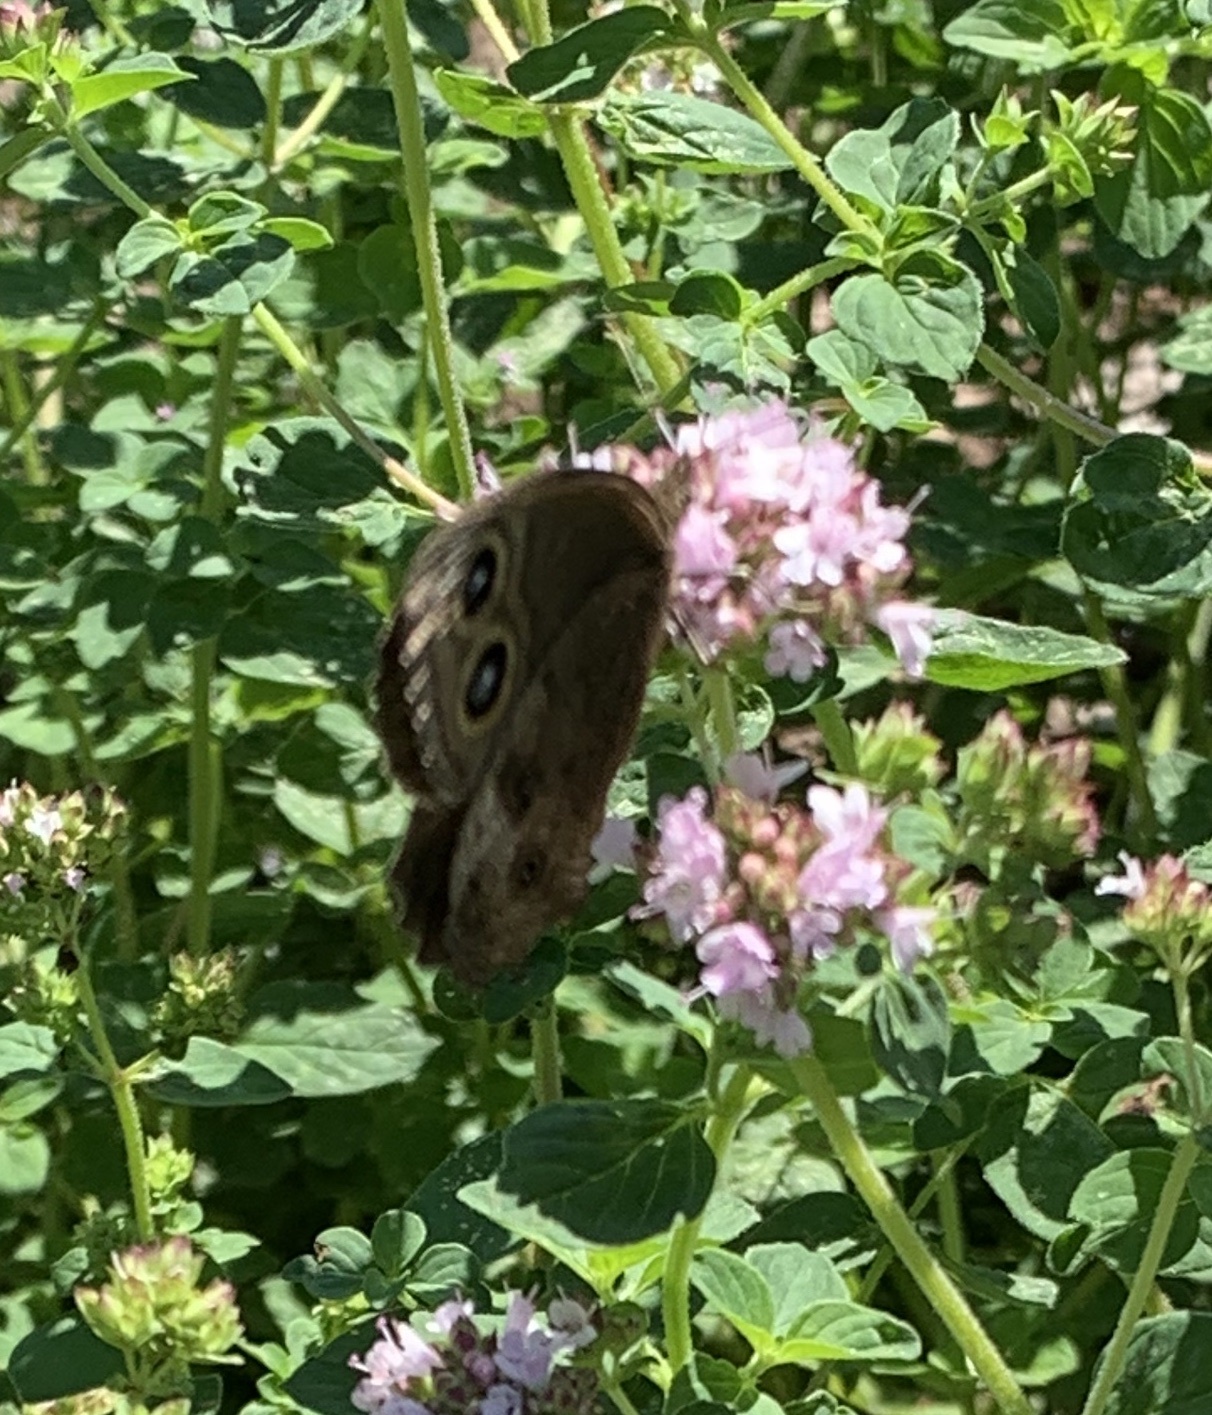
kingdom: Animalia
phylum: Arthropoda
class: Insecta
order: Lepidoptera
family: Nymphalidae
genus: Cercyonis
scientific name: Cercyonis pegala
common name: Common wood-nymph
